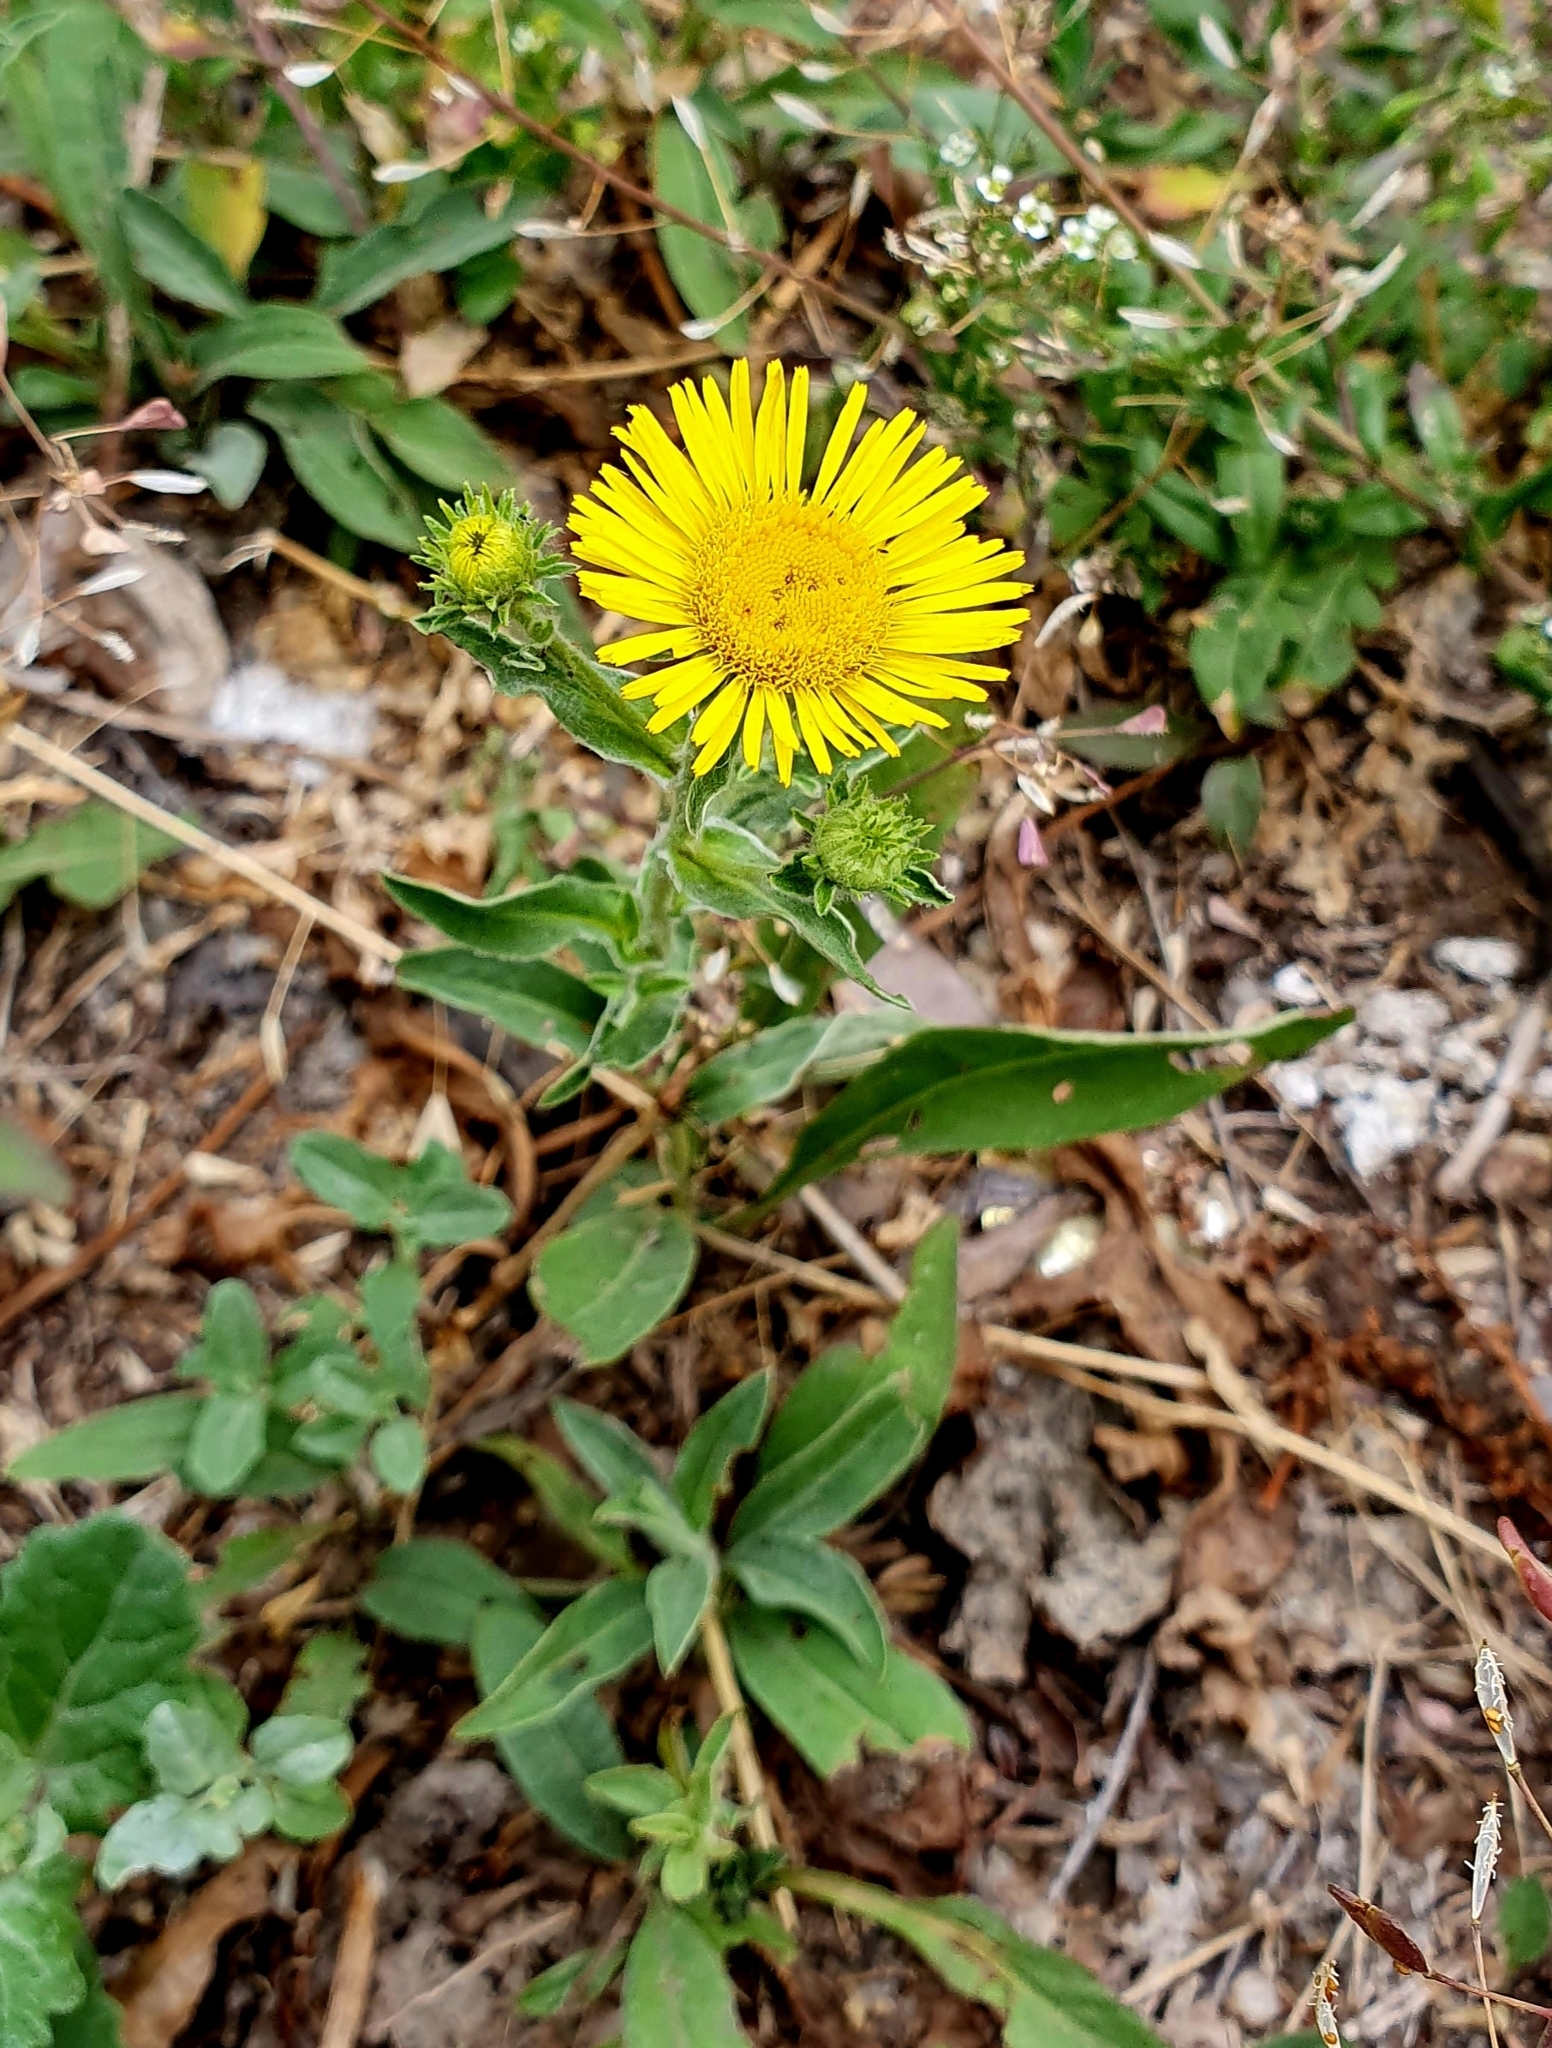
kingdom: Plantae
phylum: Tracheophyta
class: Magnoliopsida
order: Asterales
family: Asteraceae
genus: Pentanema
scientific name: Pentanema britannicum
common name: British elecampane
